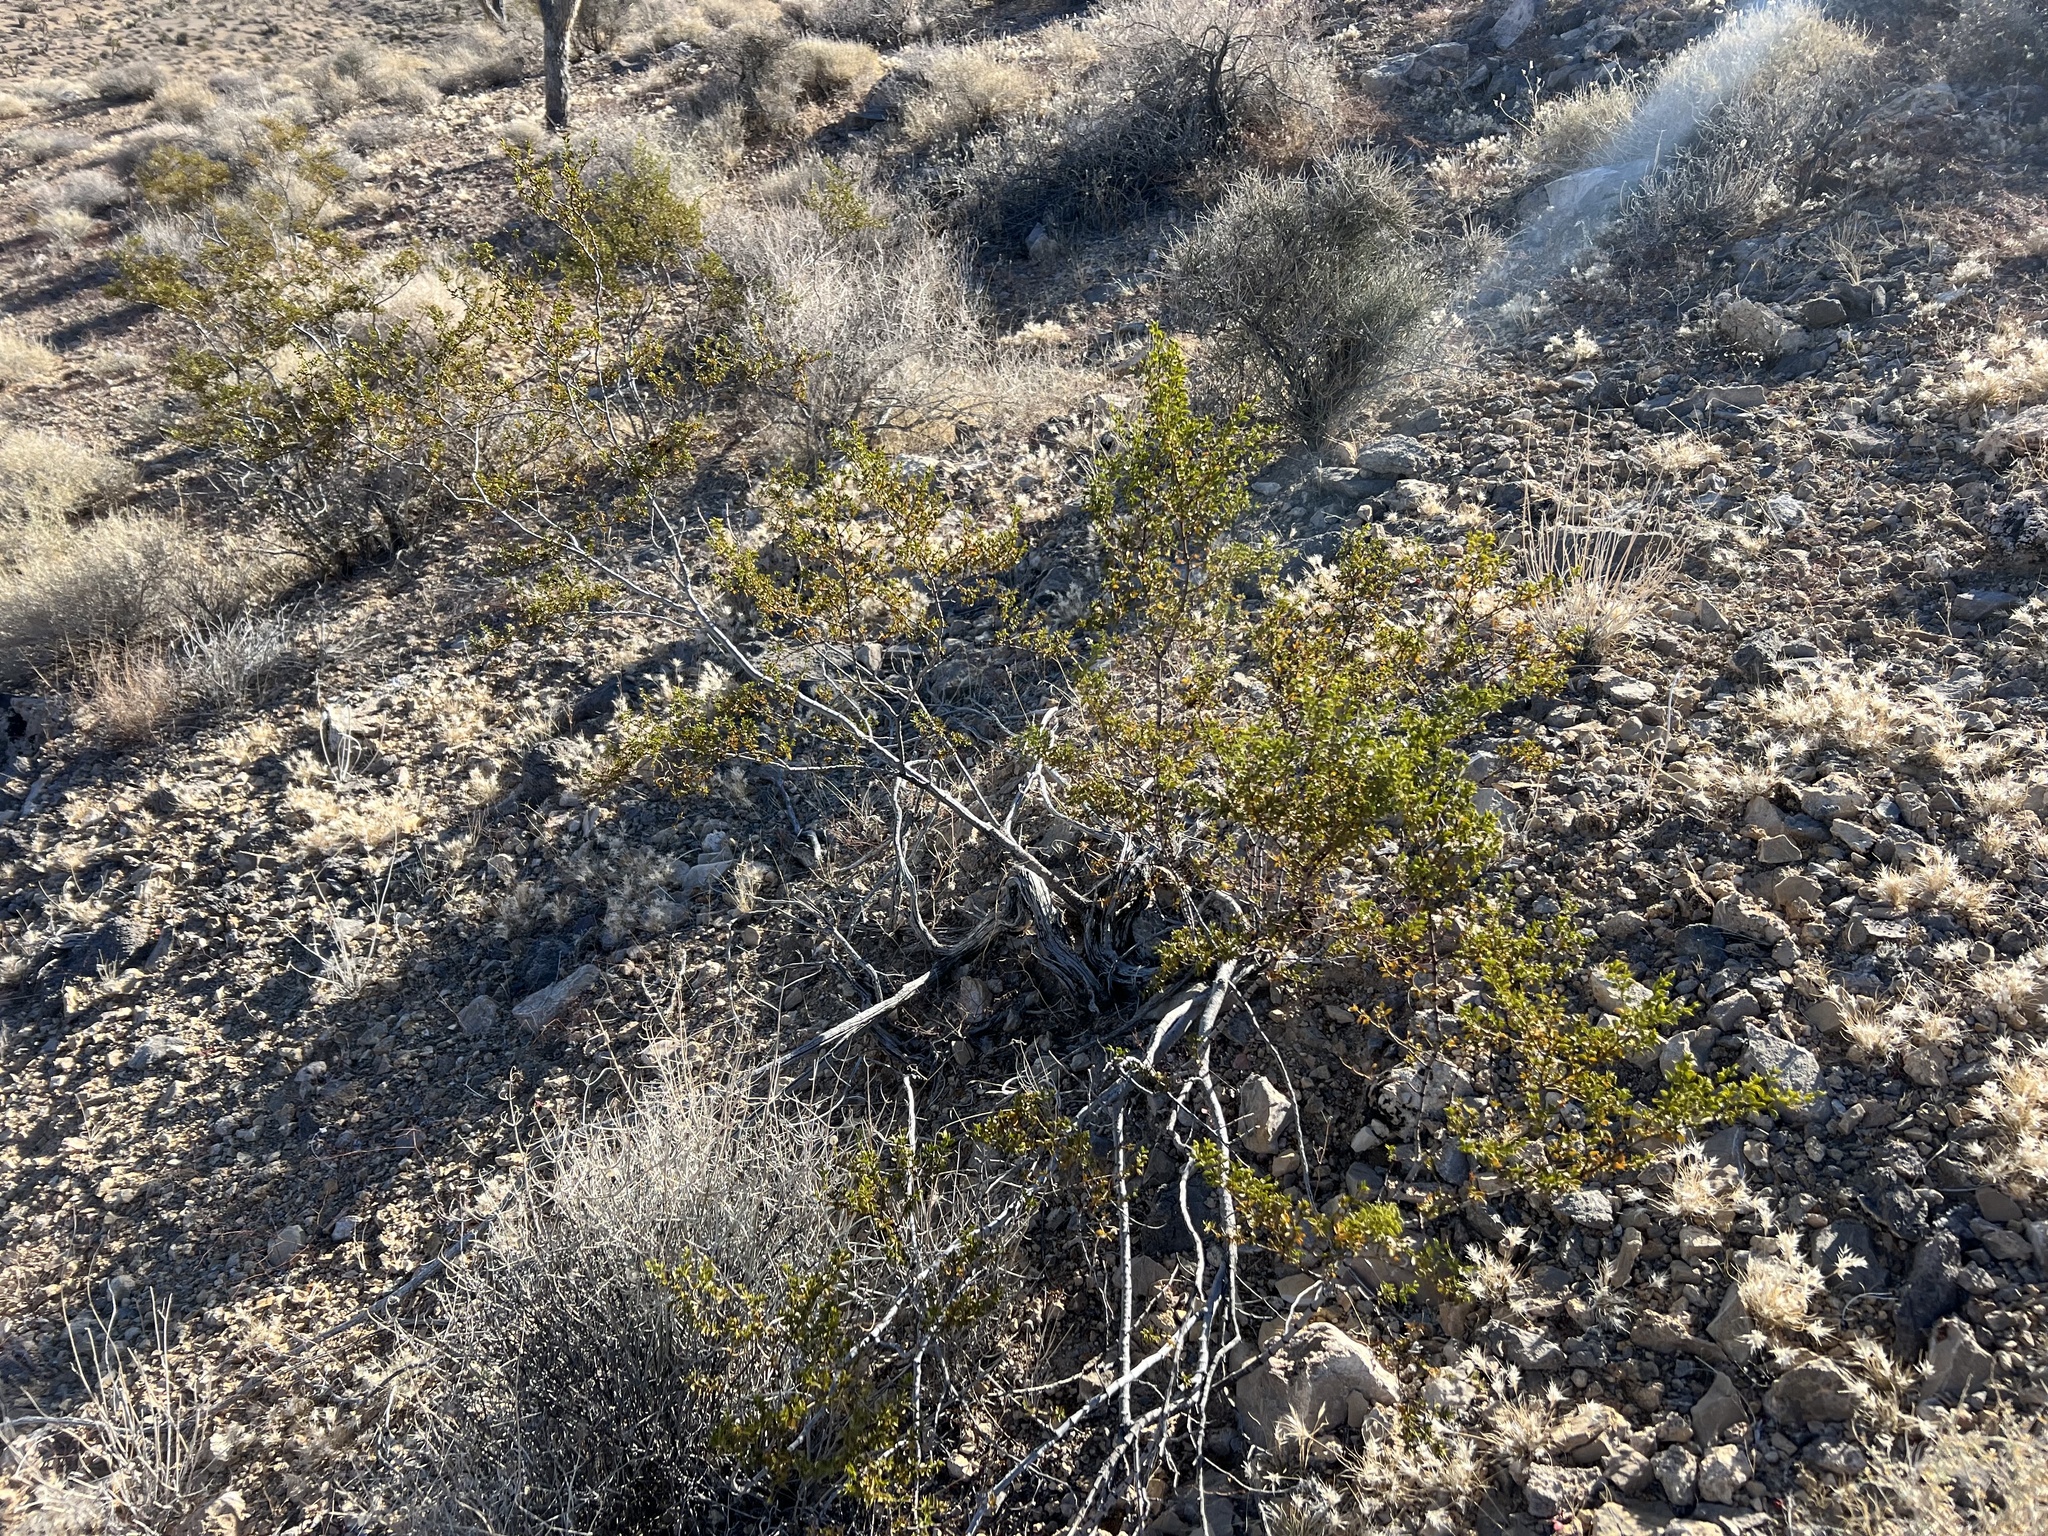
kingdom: Plantae
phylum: Tracheophyta
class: Magnoliopsida
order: Zygophyllales
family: Zygophyllaceae
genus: Larrea
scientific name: Larrea tridentata
